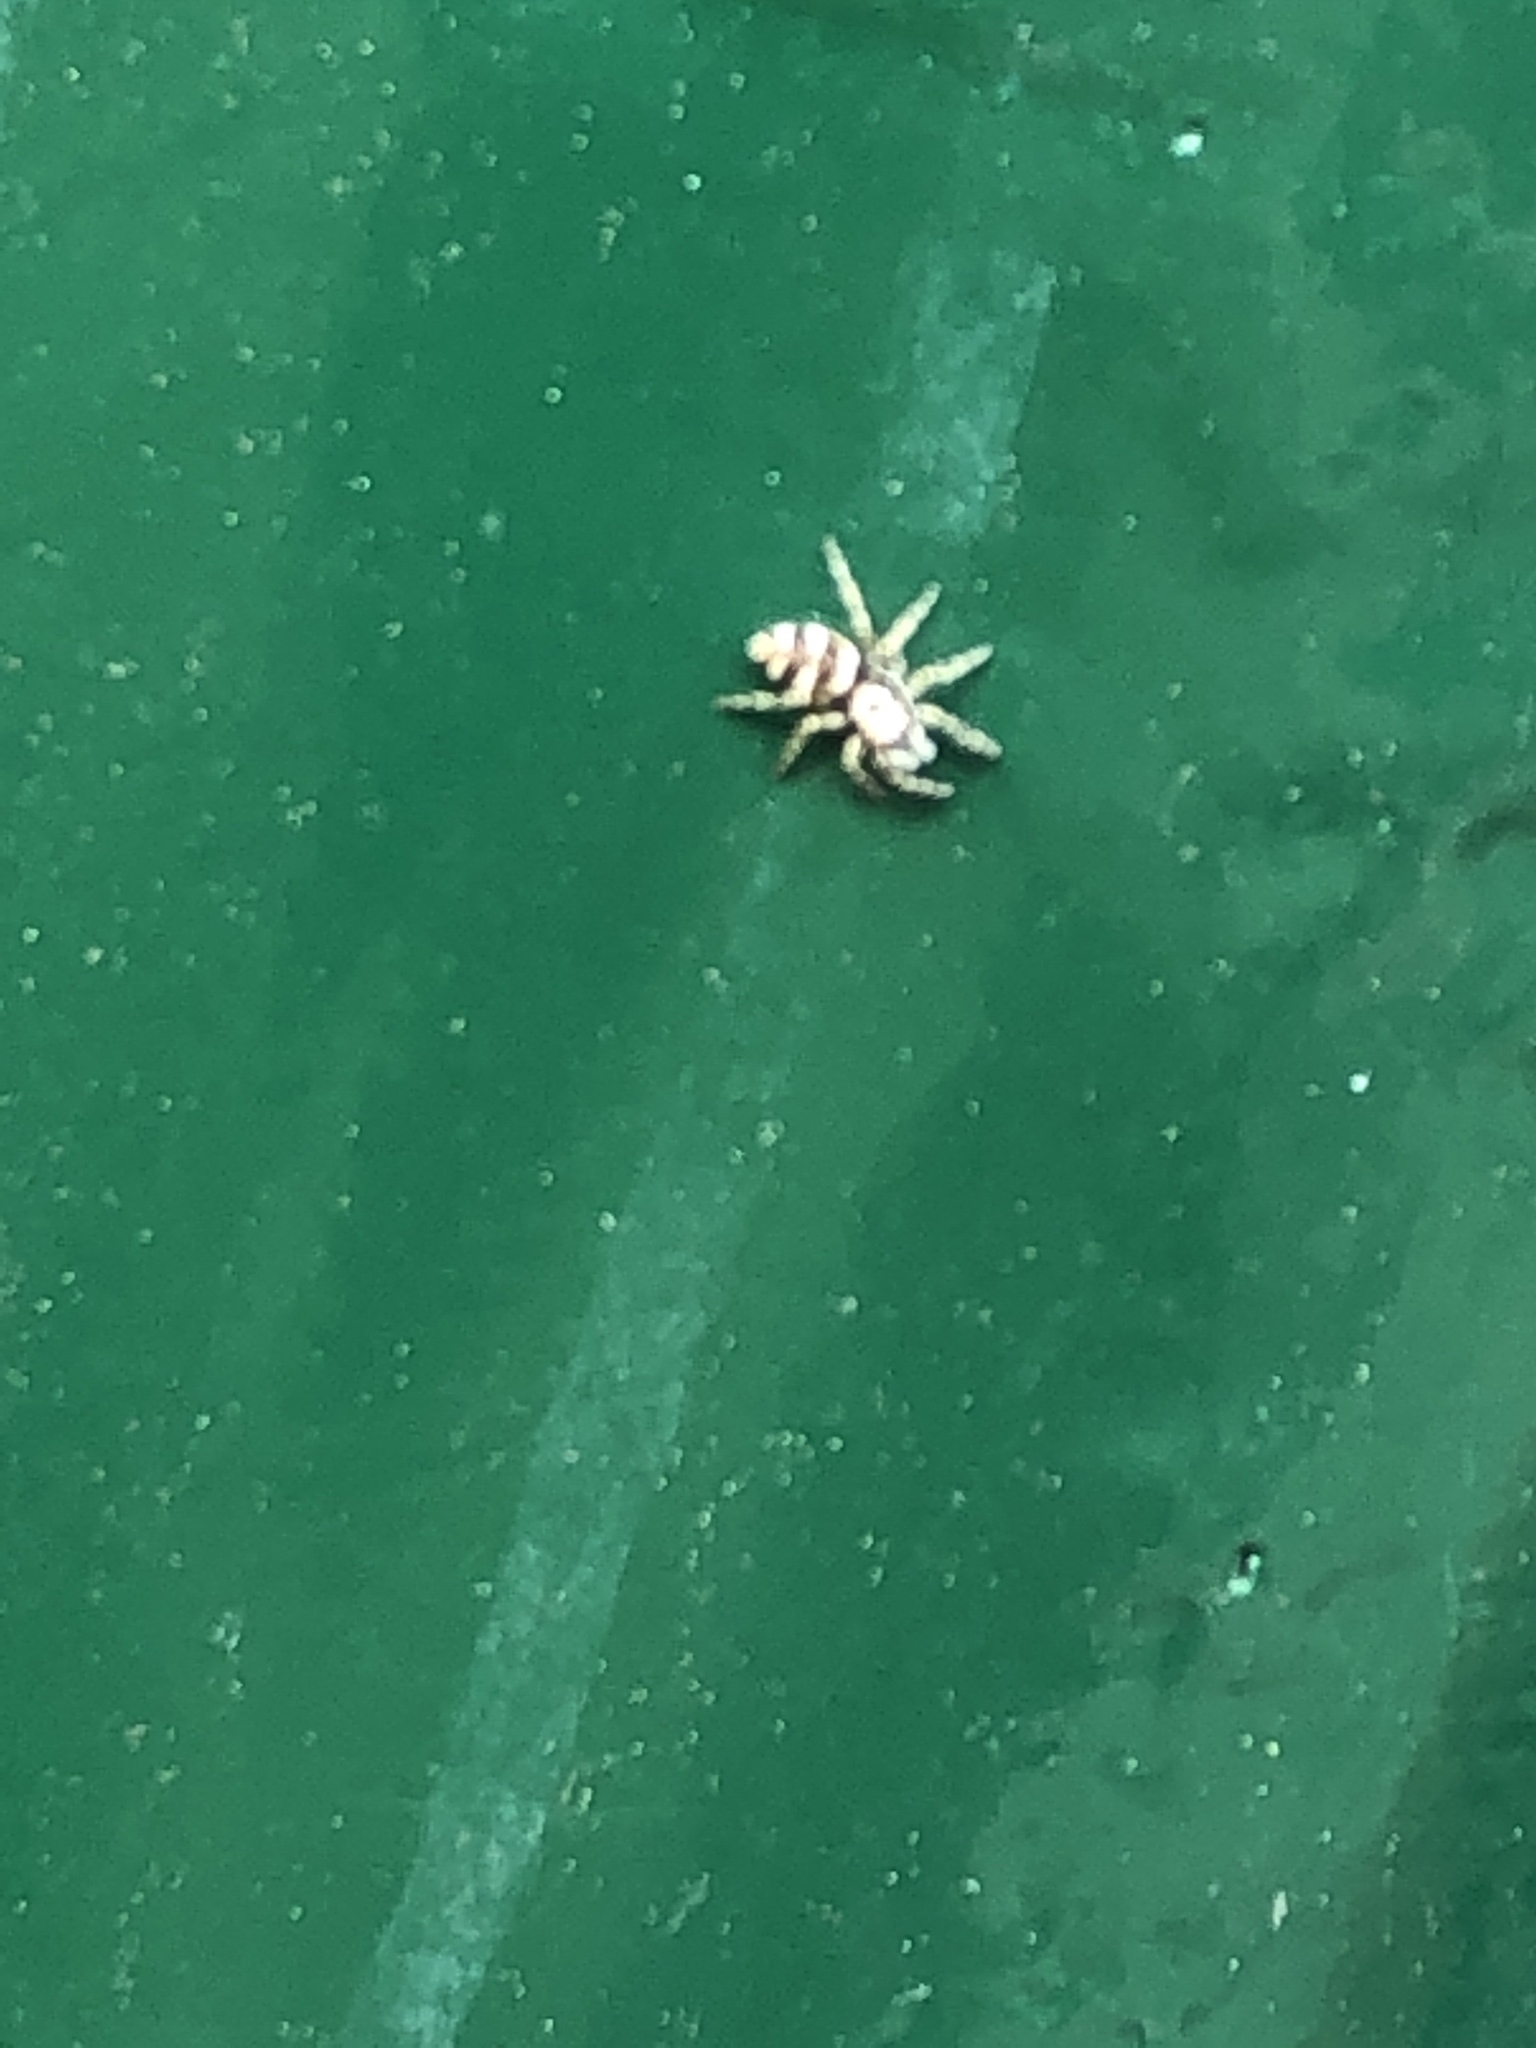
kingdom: Animalia
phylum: Arthropoda
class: Arachnida
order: Araneae
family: Salticidae
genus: Salticus
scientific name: Salticus scenicus
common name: Zebra jumper
